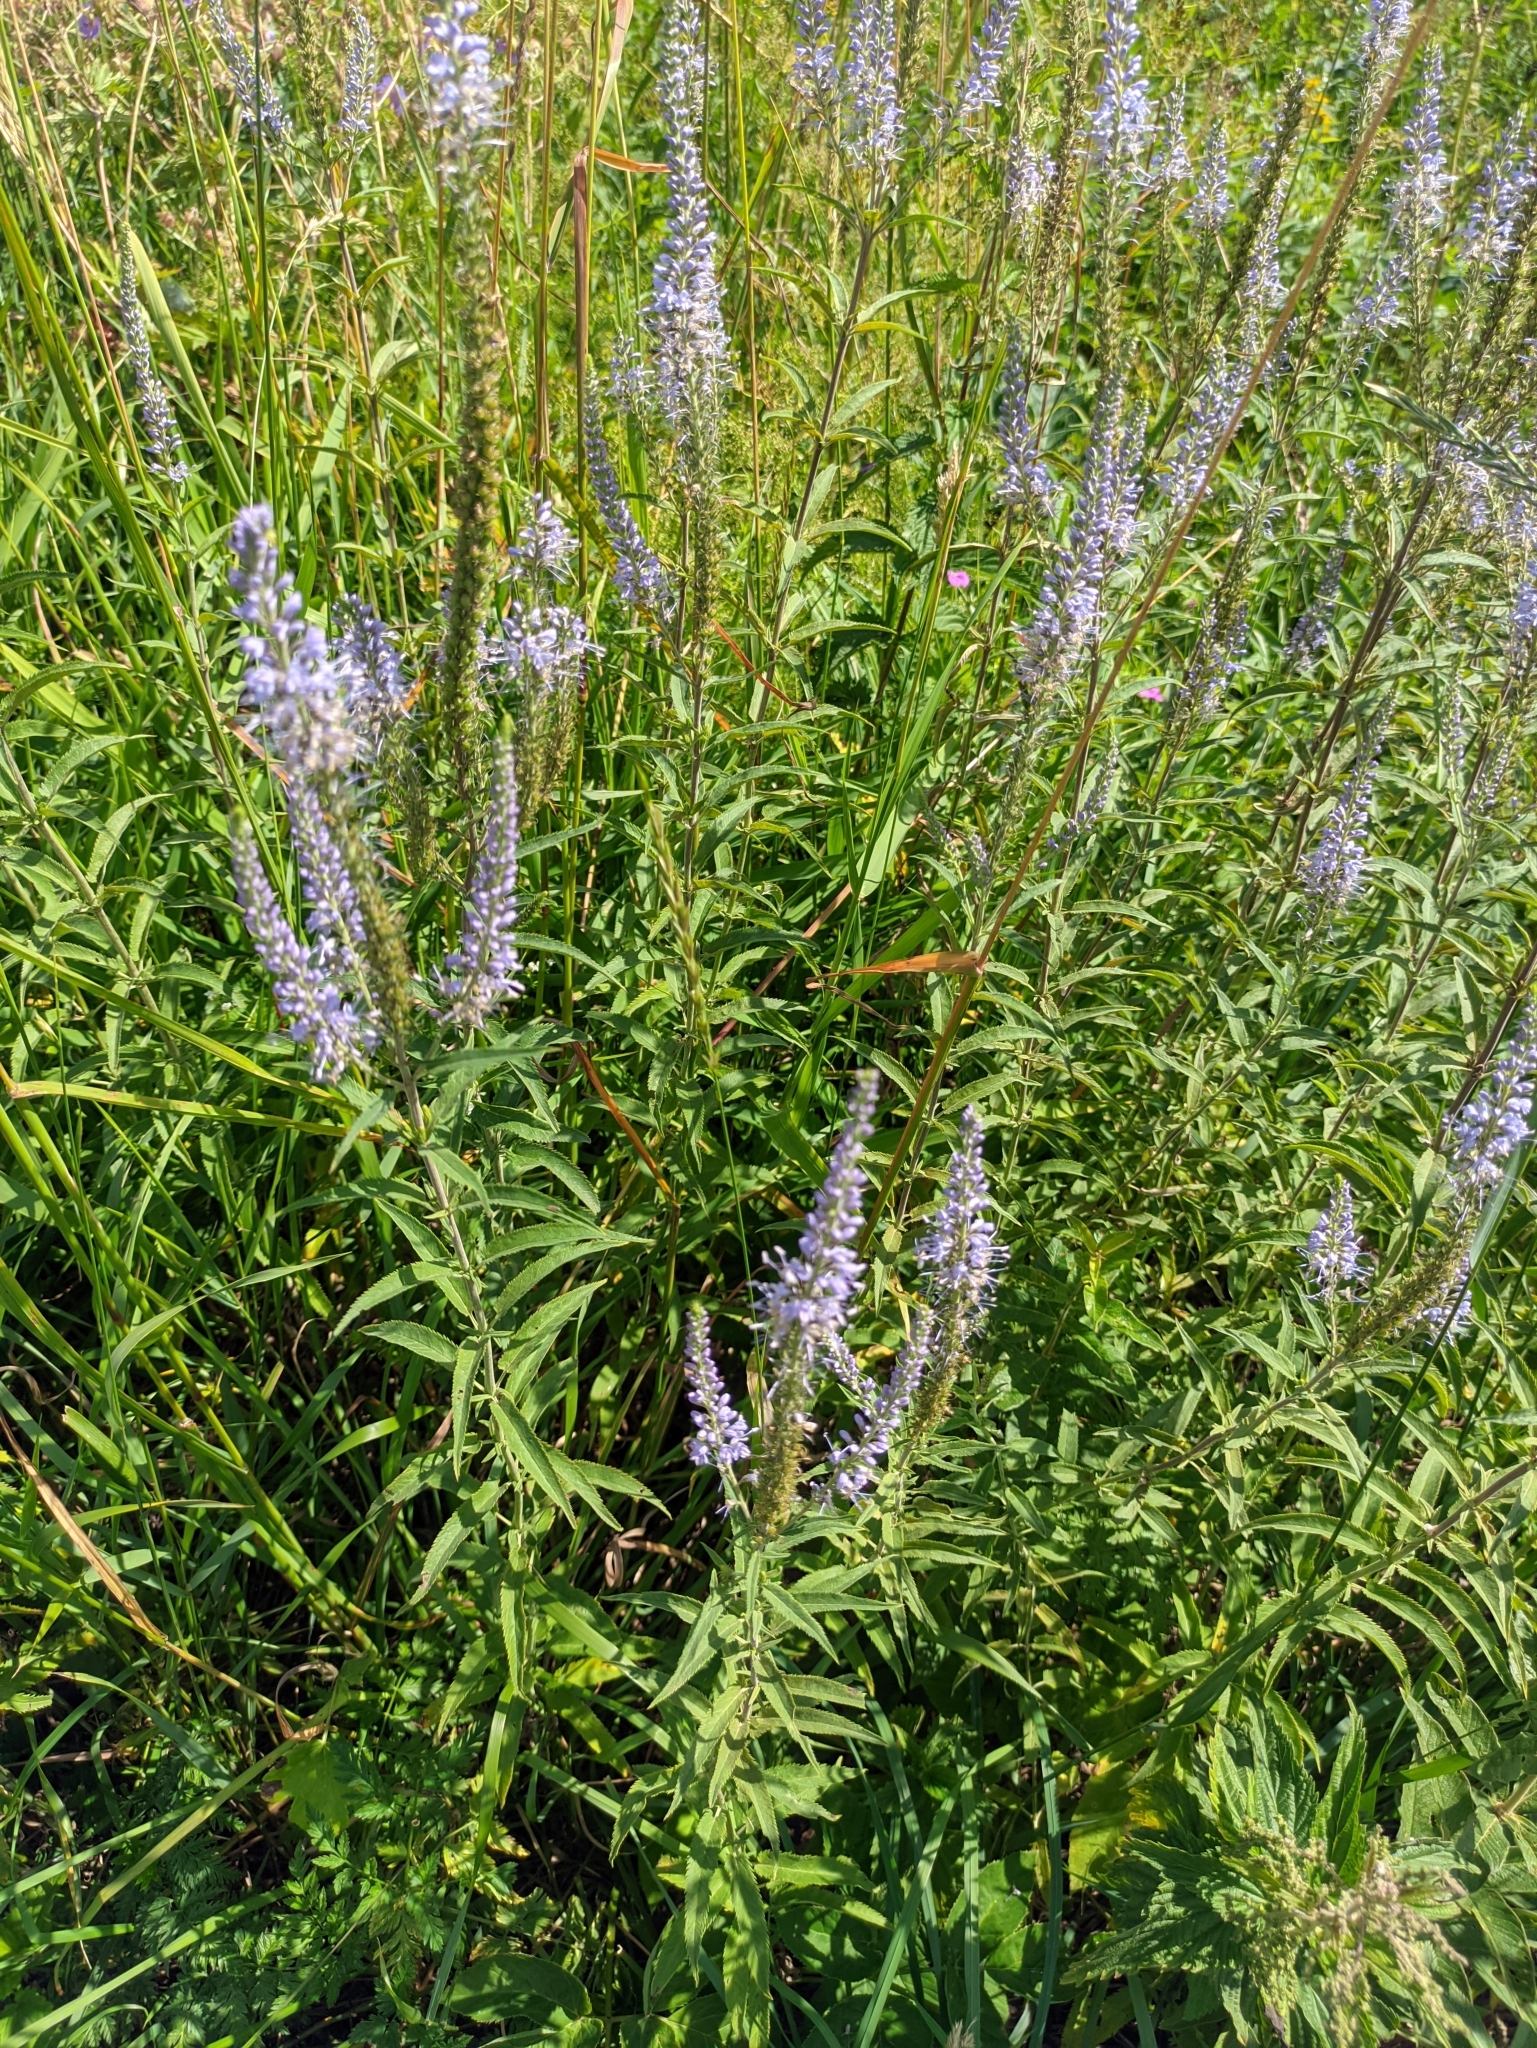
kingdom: Plantae
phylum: Tracheophyta
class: Magnoliopsida
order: Lamiales
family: Plantaginaceae
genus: Veronica
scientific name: Veronica longifolia
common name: Garden speedwell
